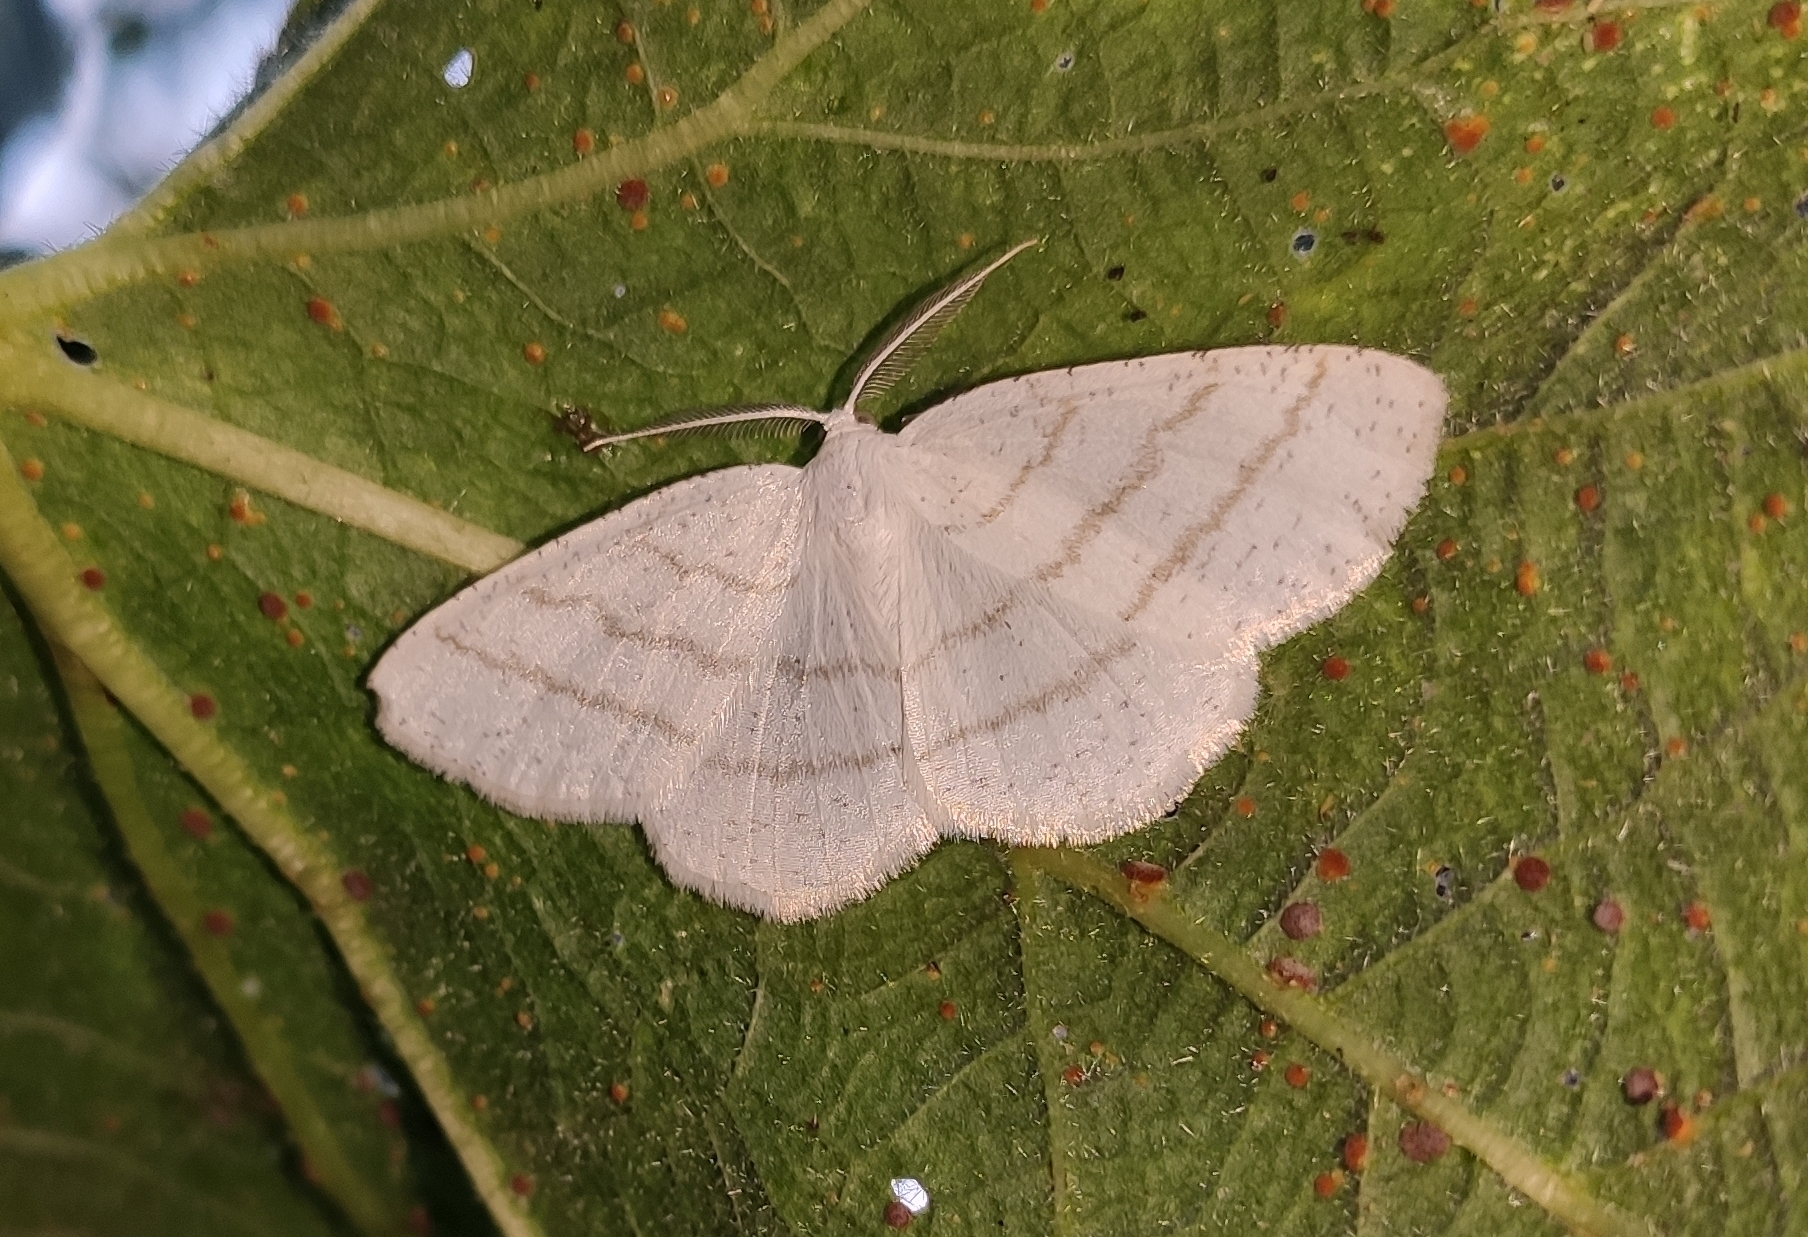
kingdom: Animalia
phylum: Arthropoda
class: Insecta
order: Lepidoptera
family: Geometridae
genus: Cabera
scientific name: Cabera pusaria
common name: Common white wave
